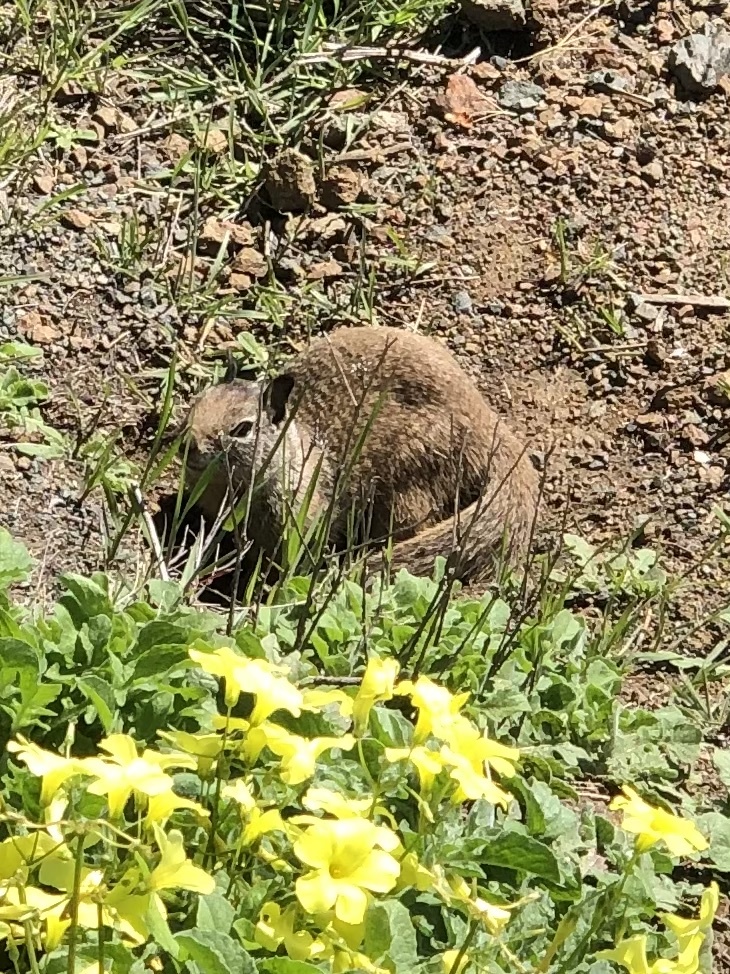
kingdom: Animalia
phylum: Chordata
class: Mammalia
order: Rodentia
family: Sciuridae
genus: Otospermophilus
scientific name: Otospermophilus beecheyi
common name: California ground squirrel
